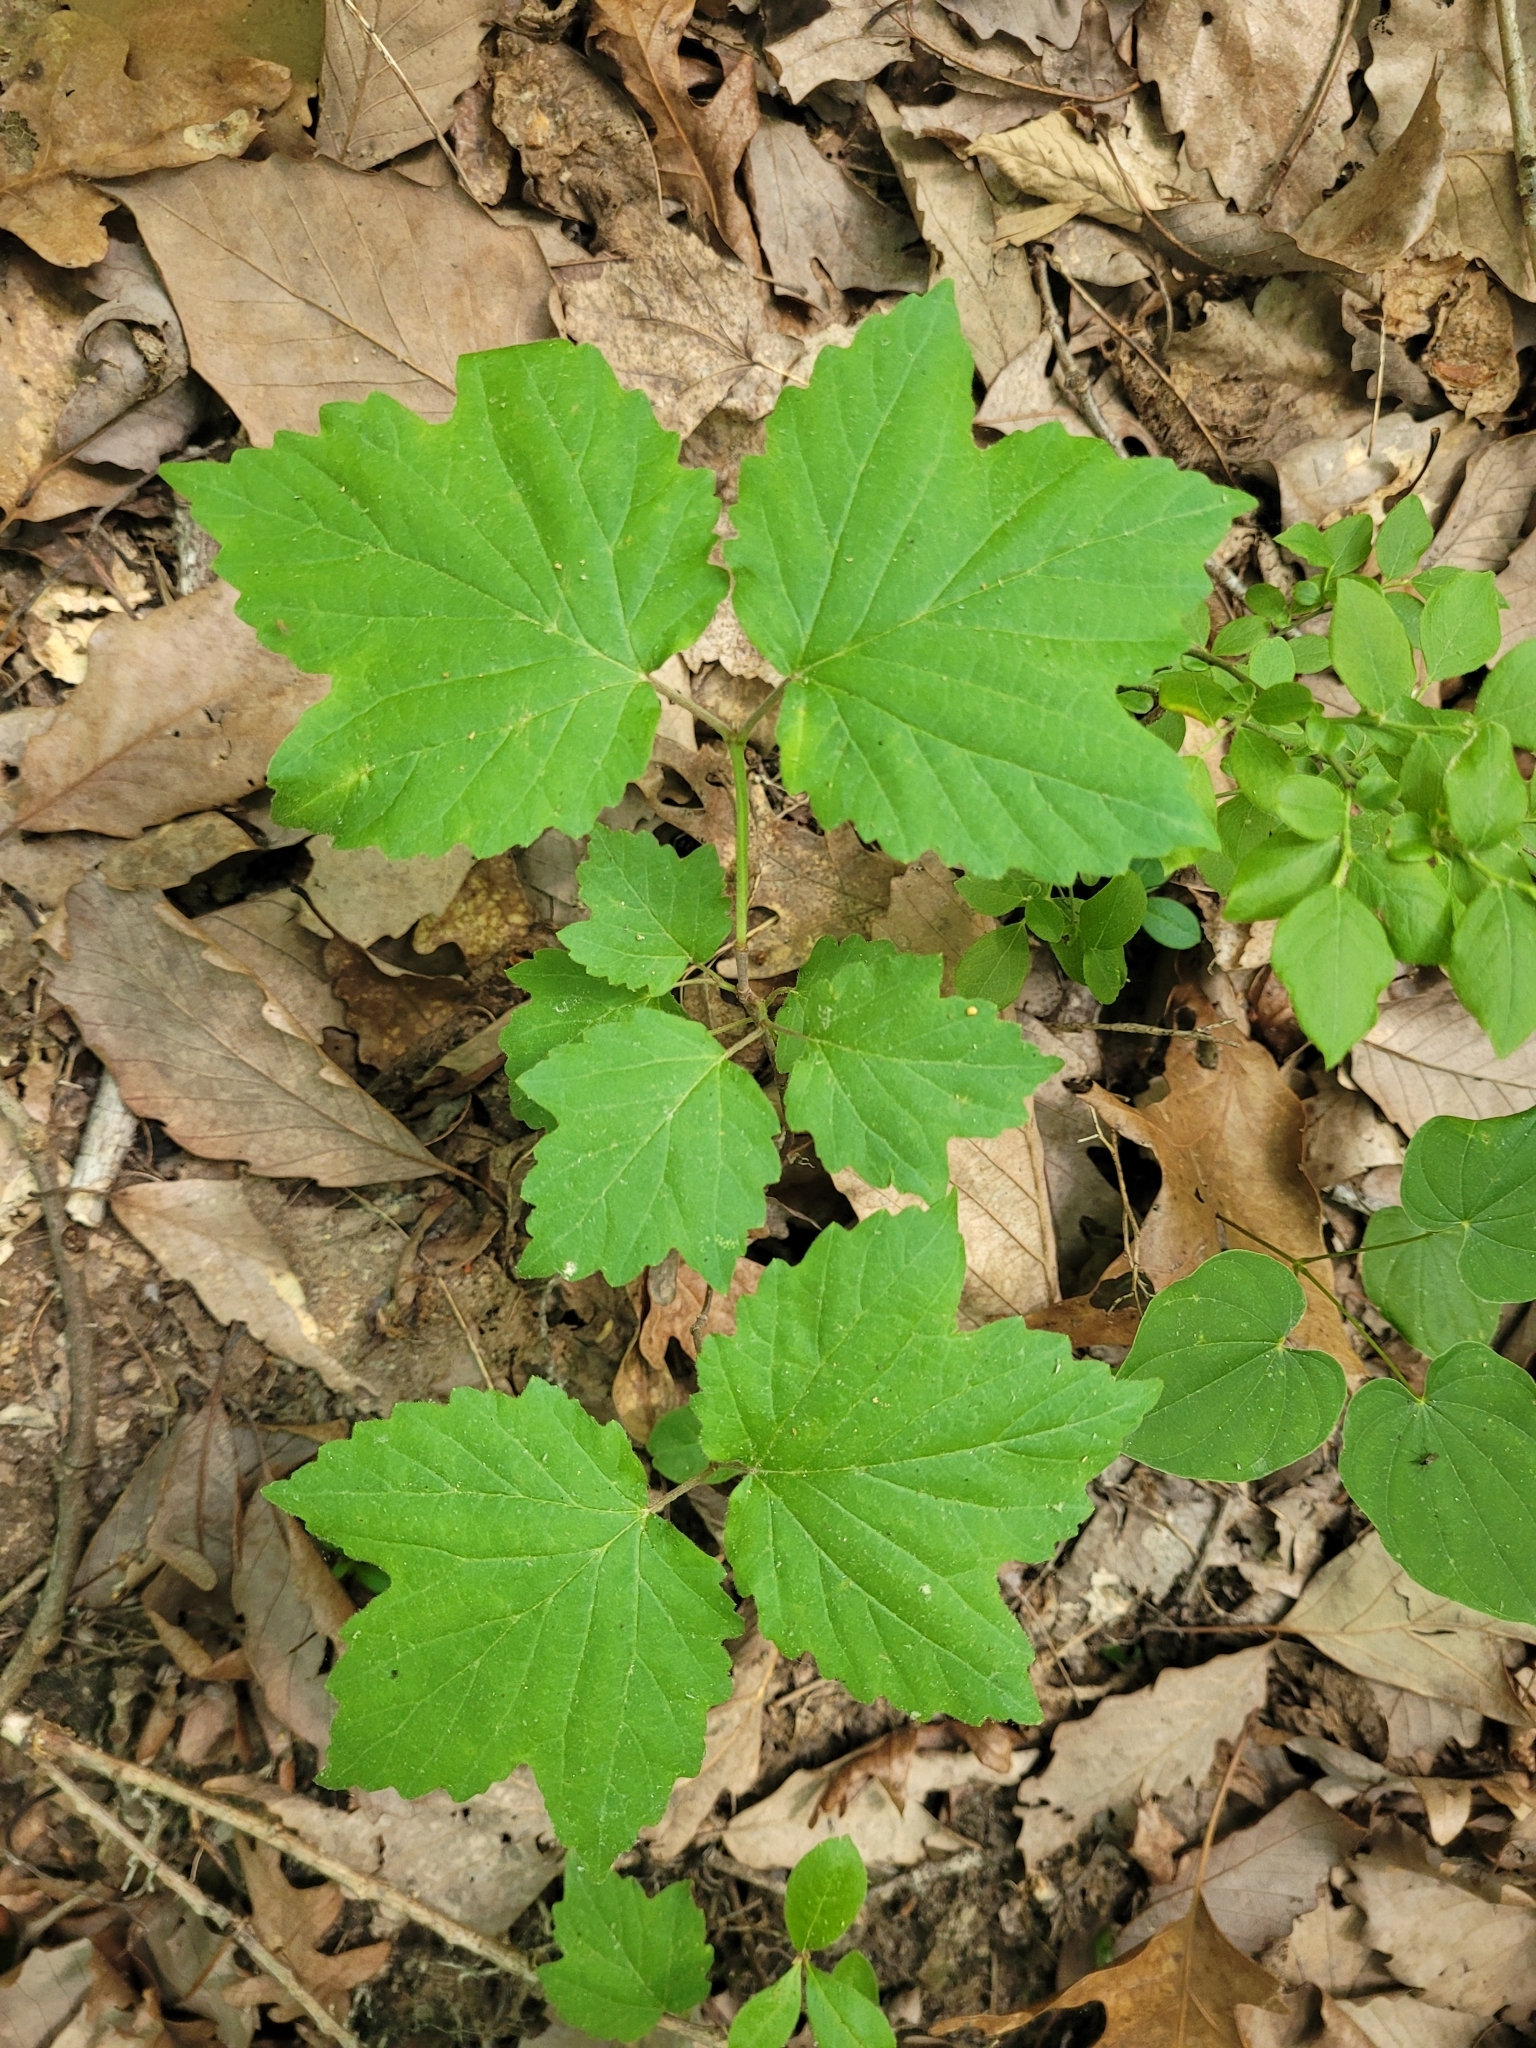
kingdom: Plantae
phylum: Tracheophyta
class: Magnoliopsida
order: Dipsacales
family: Viburnaceae
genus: Viburnum
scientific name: Viburnum acerifolium
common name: Dockmackie
